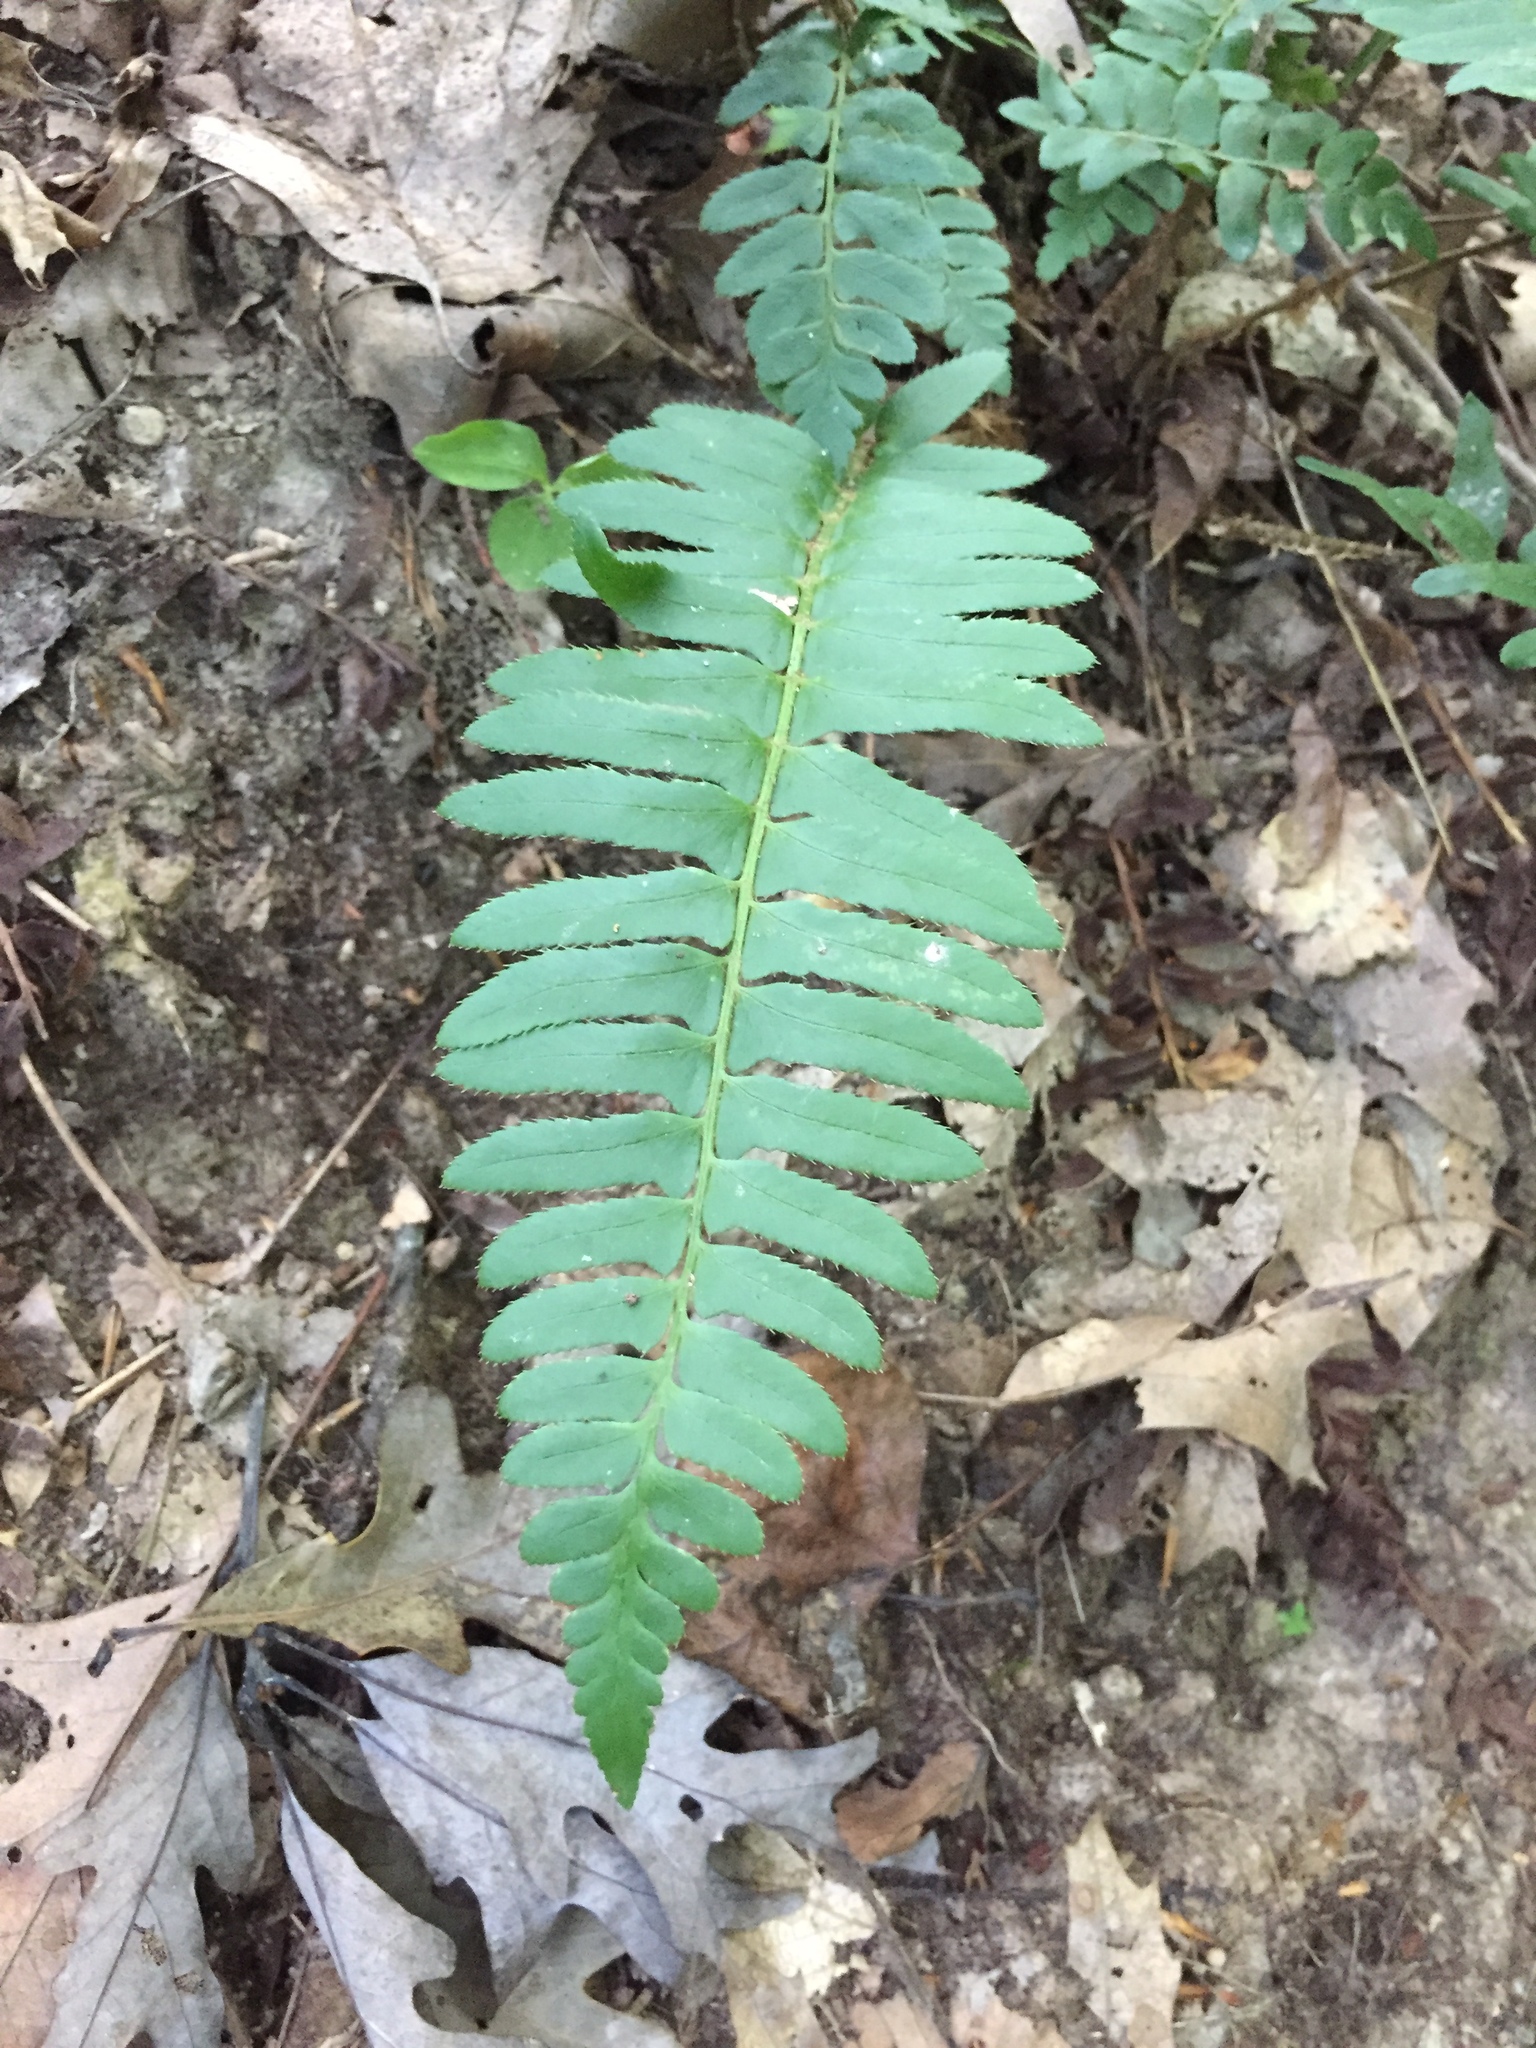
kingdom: Plantae
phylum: Tracheophyta
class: Polypodiopsida
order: Polypodiales
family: Dryopteridaceae
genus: Polystichum
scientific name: Polystichum acrostichoides
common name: Christmas fern
